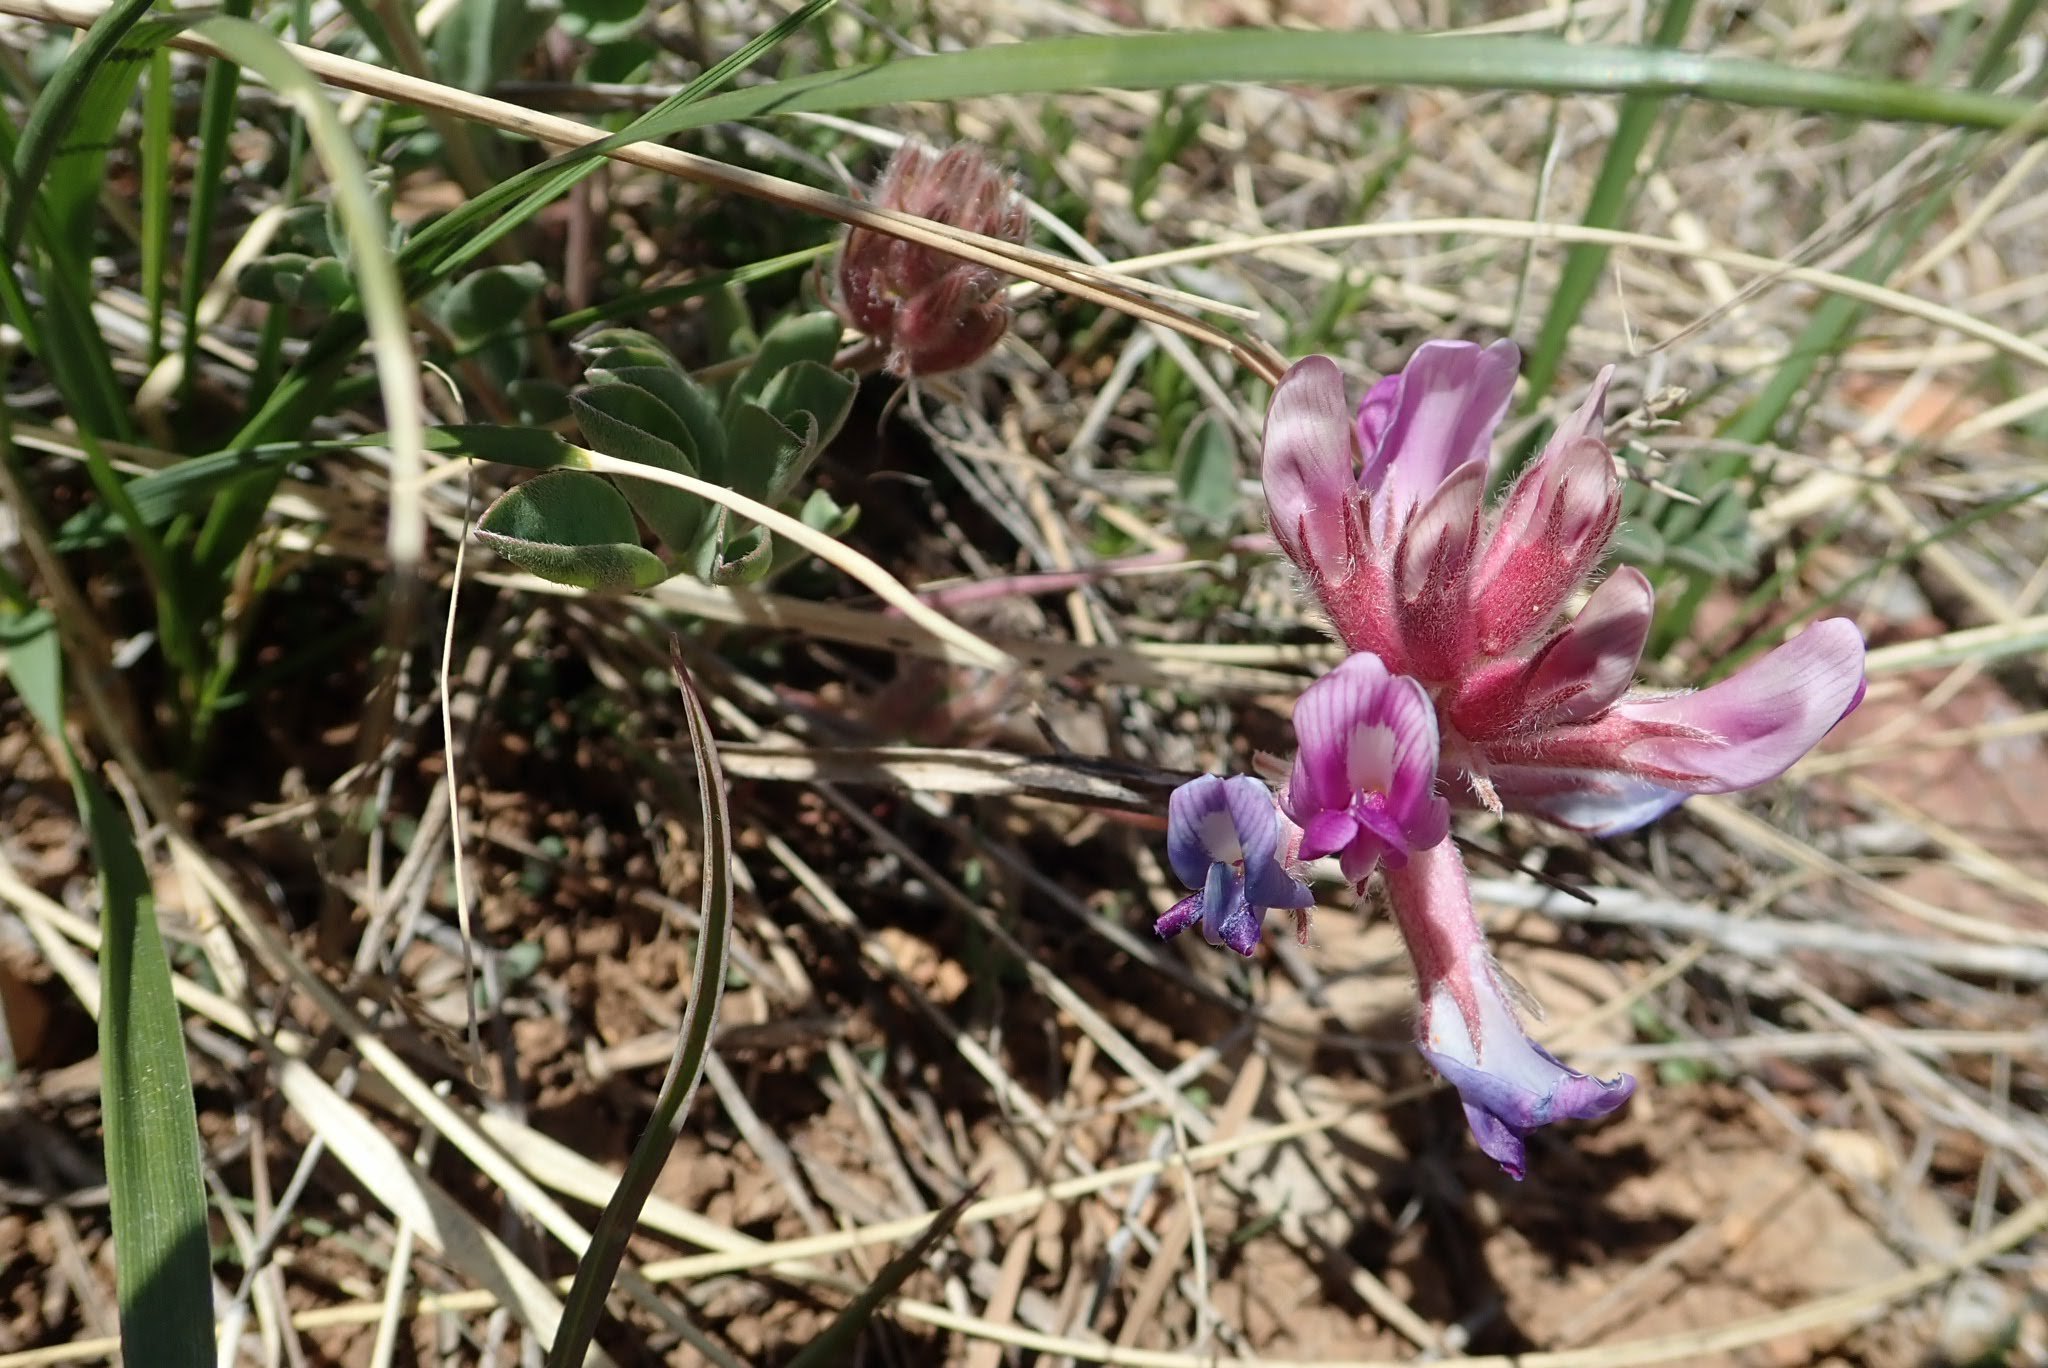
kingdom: Plantae
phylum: Tracheophyta
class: Magnoliopsida
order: Fabales
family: Fabaceae
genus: Astragalus
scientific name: Astragalus shortianus
